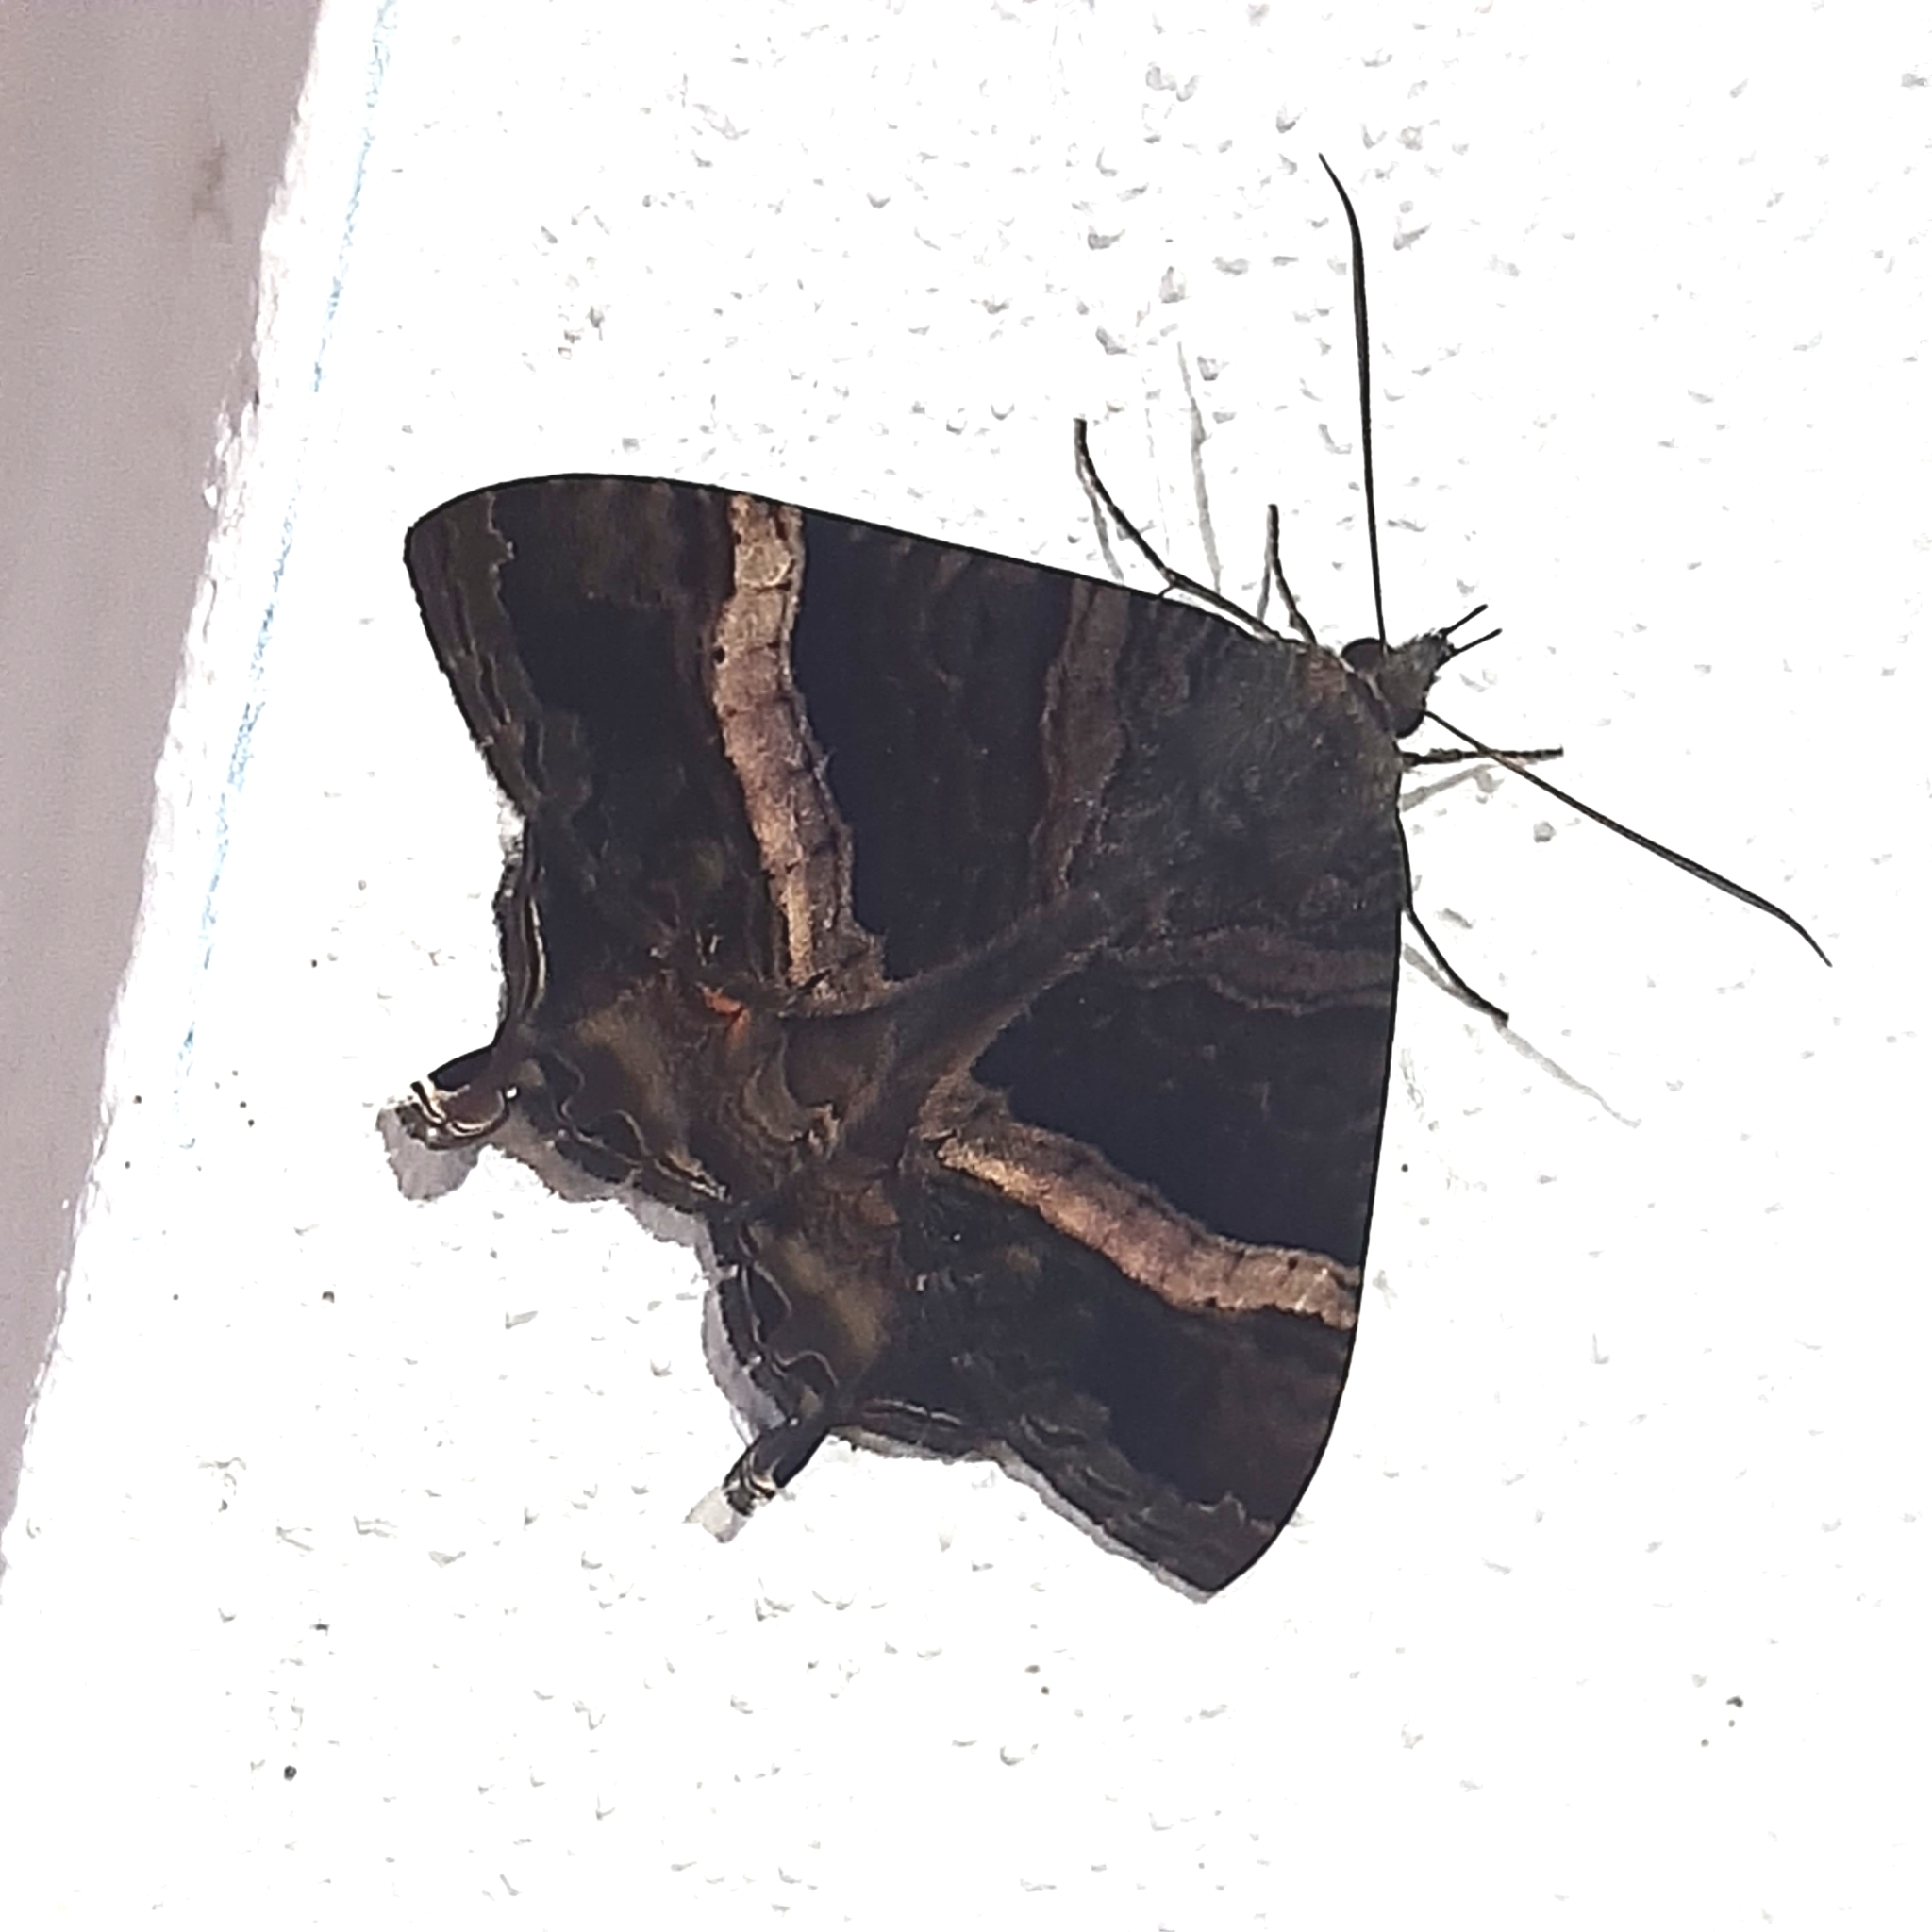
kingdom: Animalia
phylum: Arthropoda
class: Insecta
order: Lepidoptera
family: Sematuridae
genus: Coronidia
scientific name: Coronidia leachii
